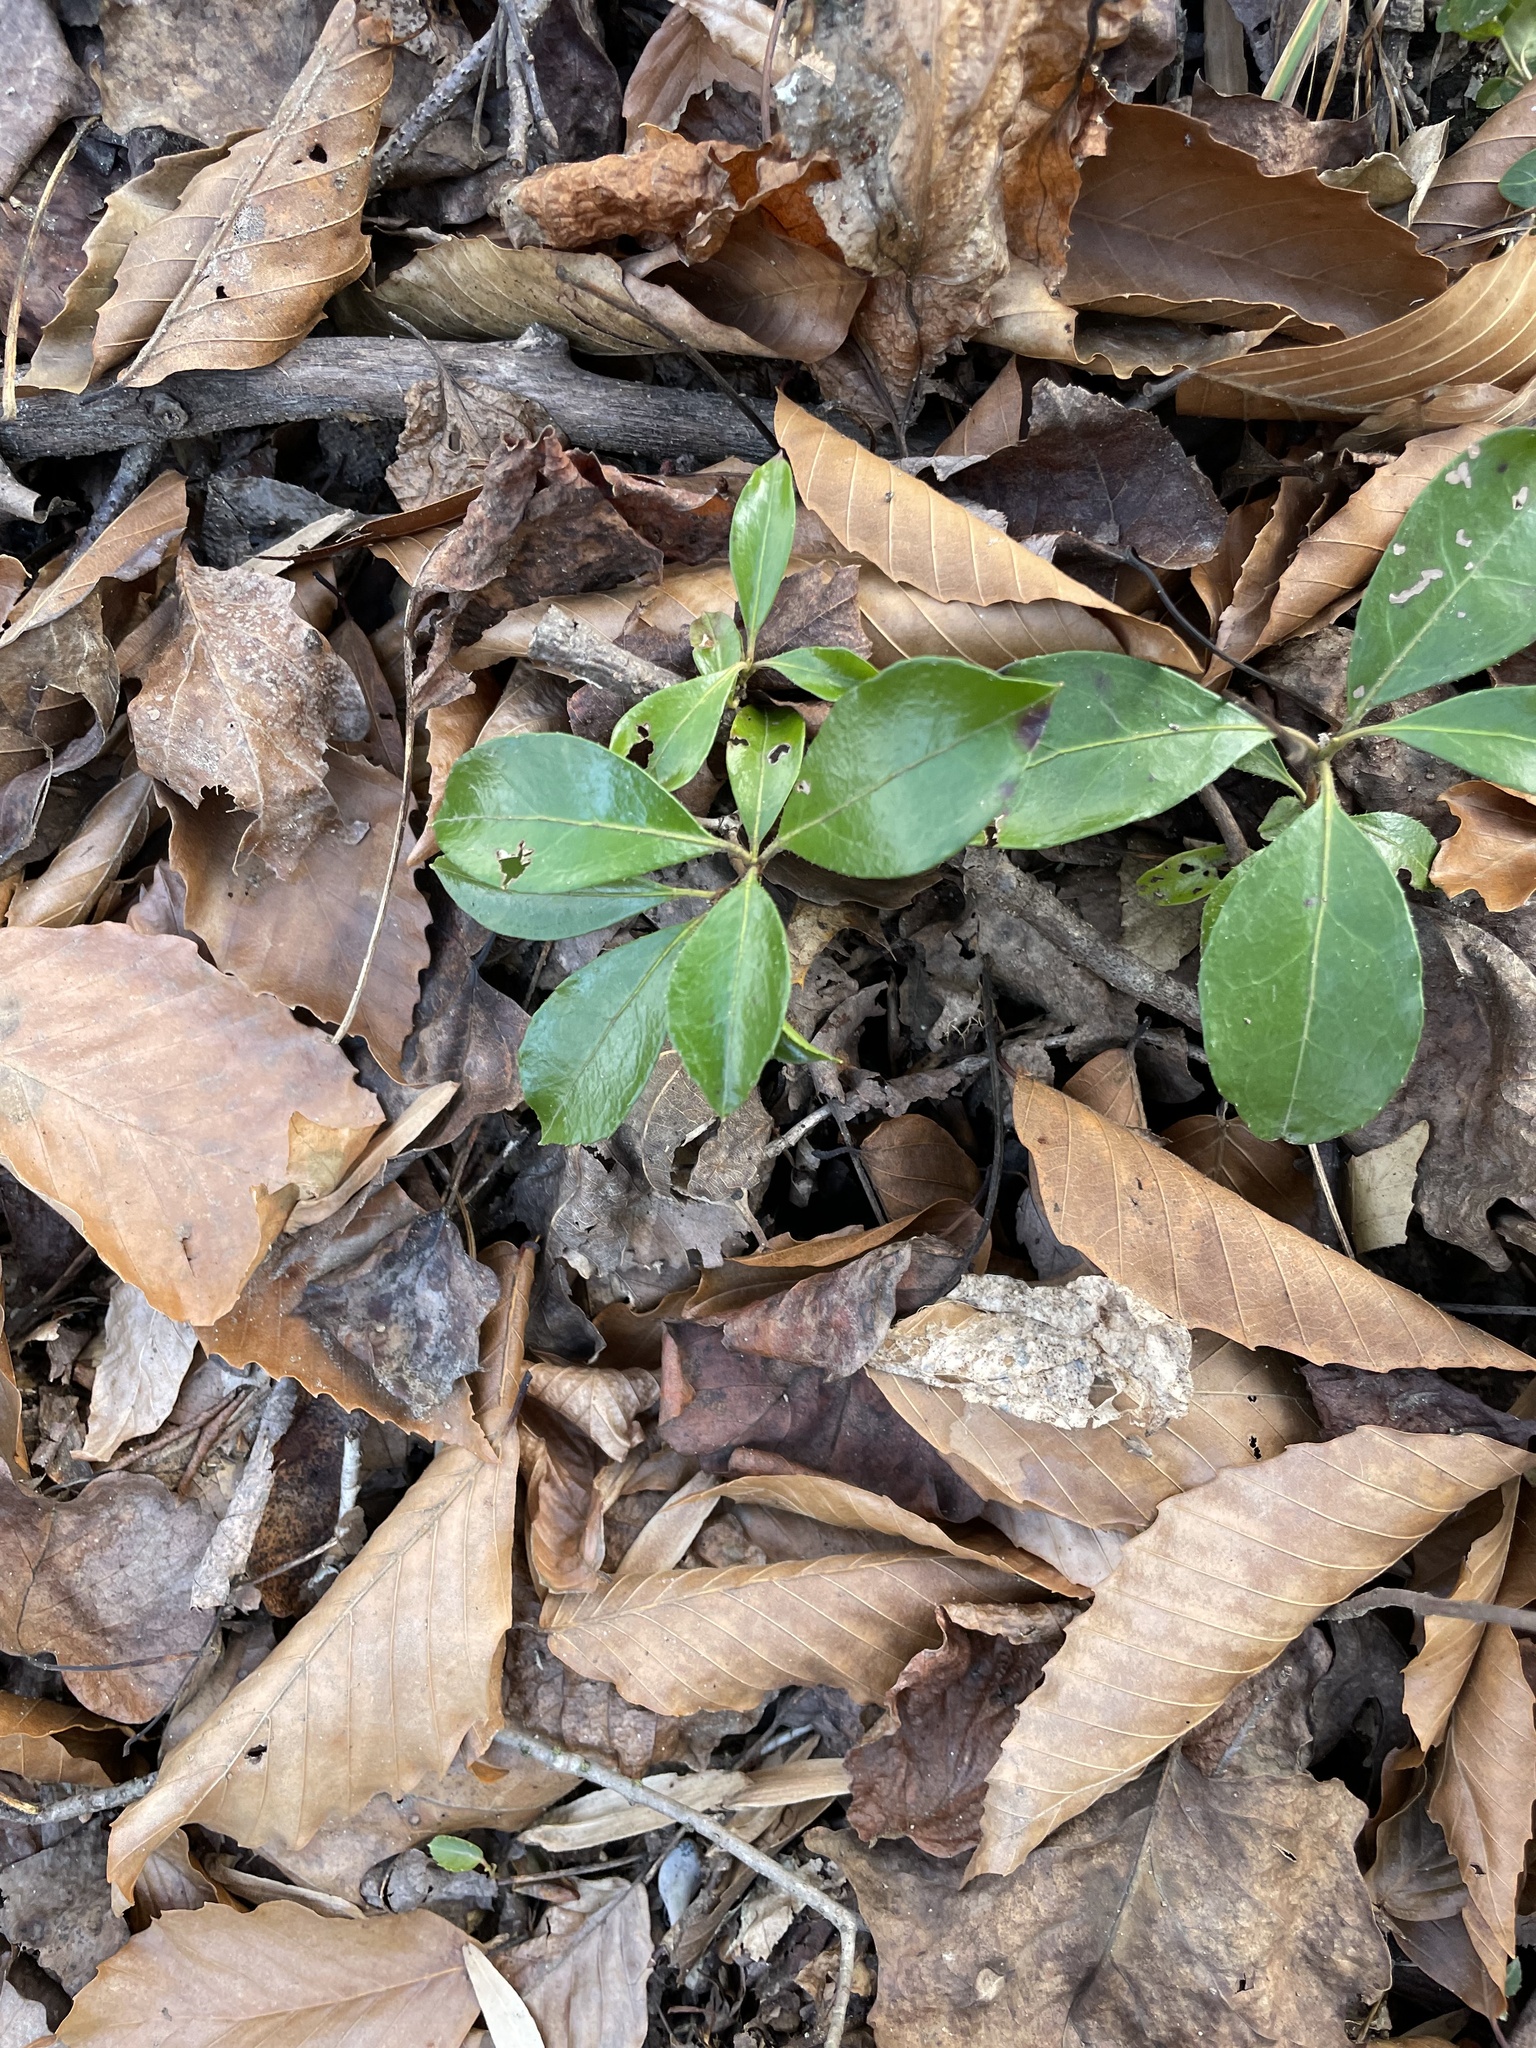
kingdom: Plantae
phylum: Tracheophyta
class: Magnoliopsida
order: Ericales
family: Ericaceae
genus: Kalmia
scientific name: Kalmia latifolia
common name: Mountain-laurel
